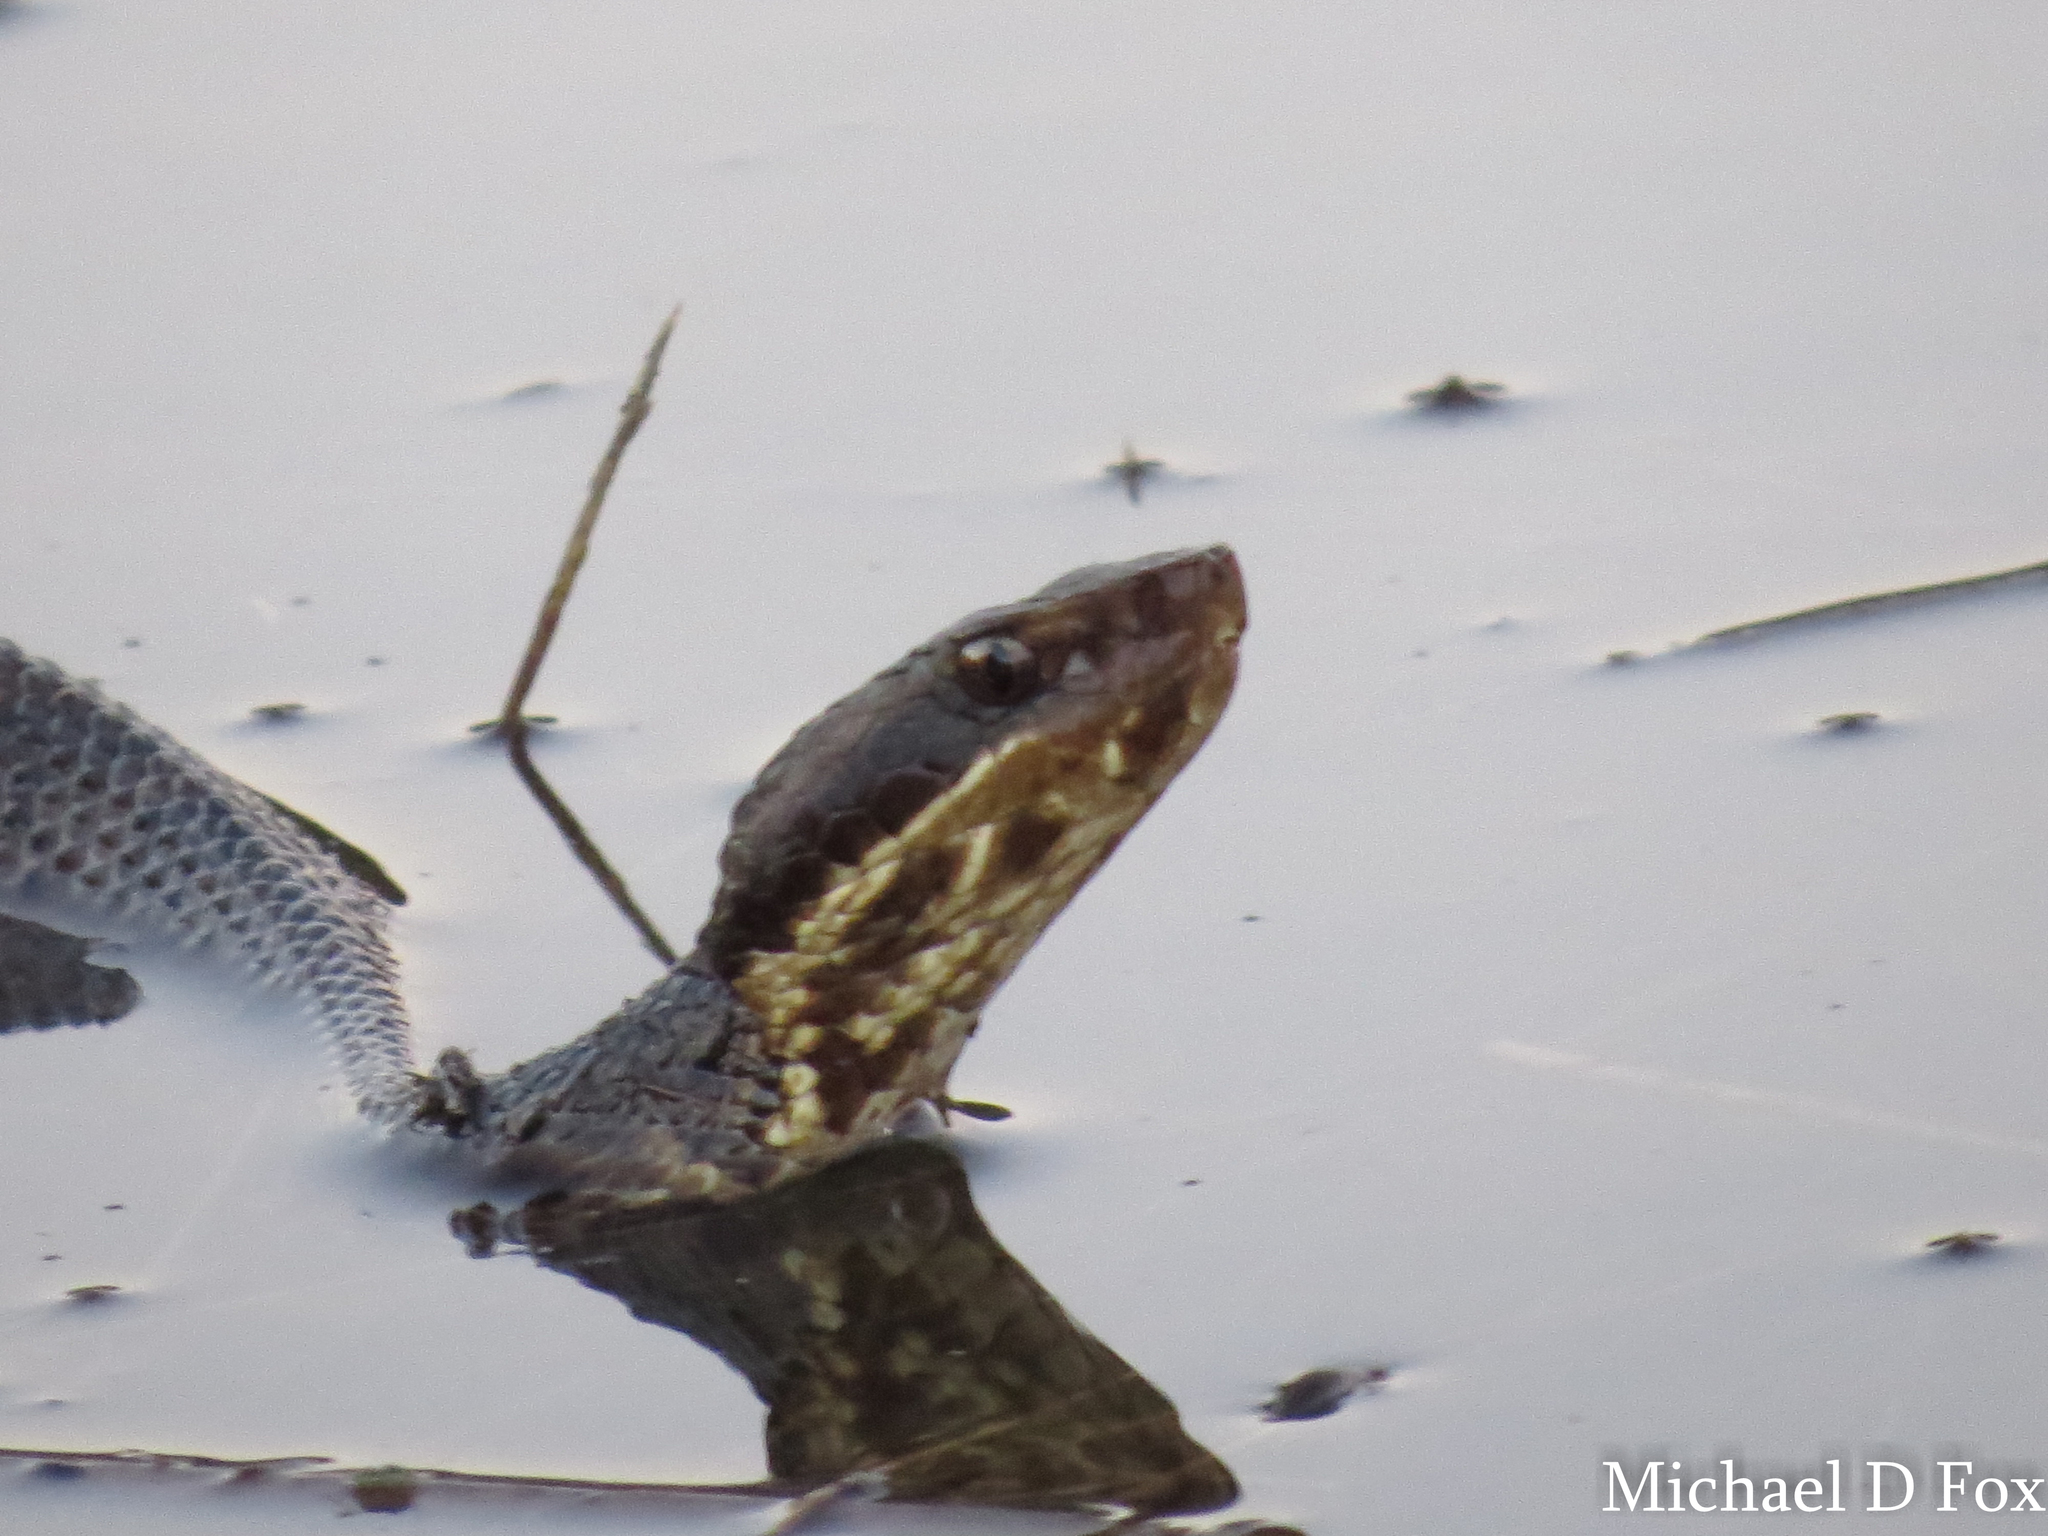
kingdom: Animalia
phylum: Chordata
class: Squamata
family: Viperidae
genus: Agkistrodon
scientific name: Agkistrodon piscivorus
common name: Cottonmouth
